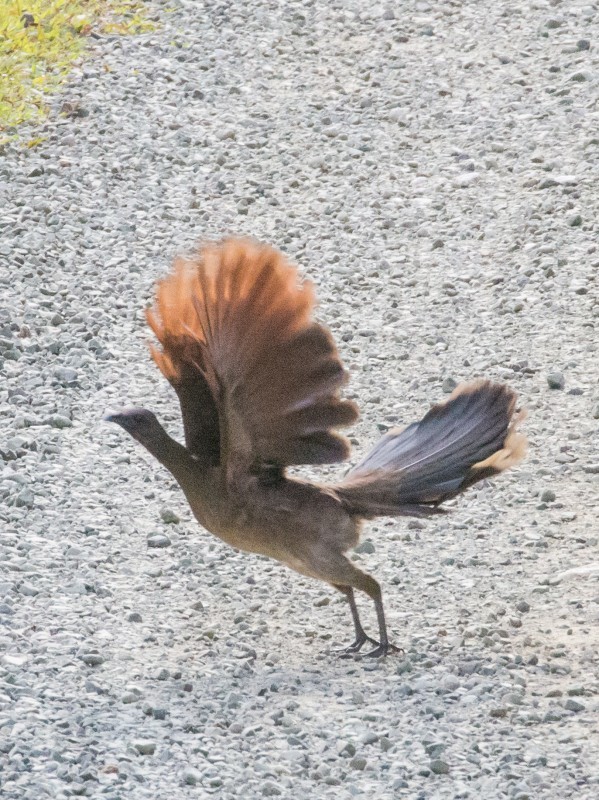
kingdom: Animalia
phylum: Chordata
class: Aves
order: Galliformes
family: Cracidae
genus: Ortalis
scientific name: Ortalis cinereiceps
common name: Grey-headed chachalaca
